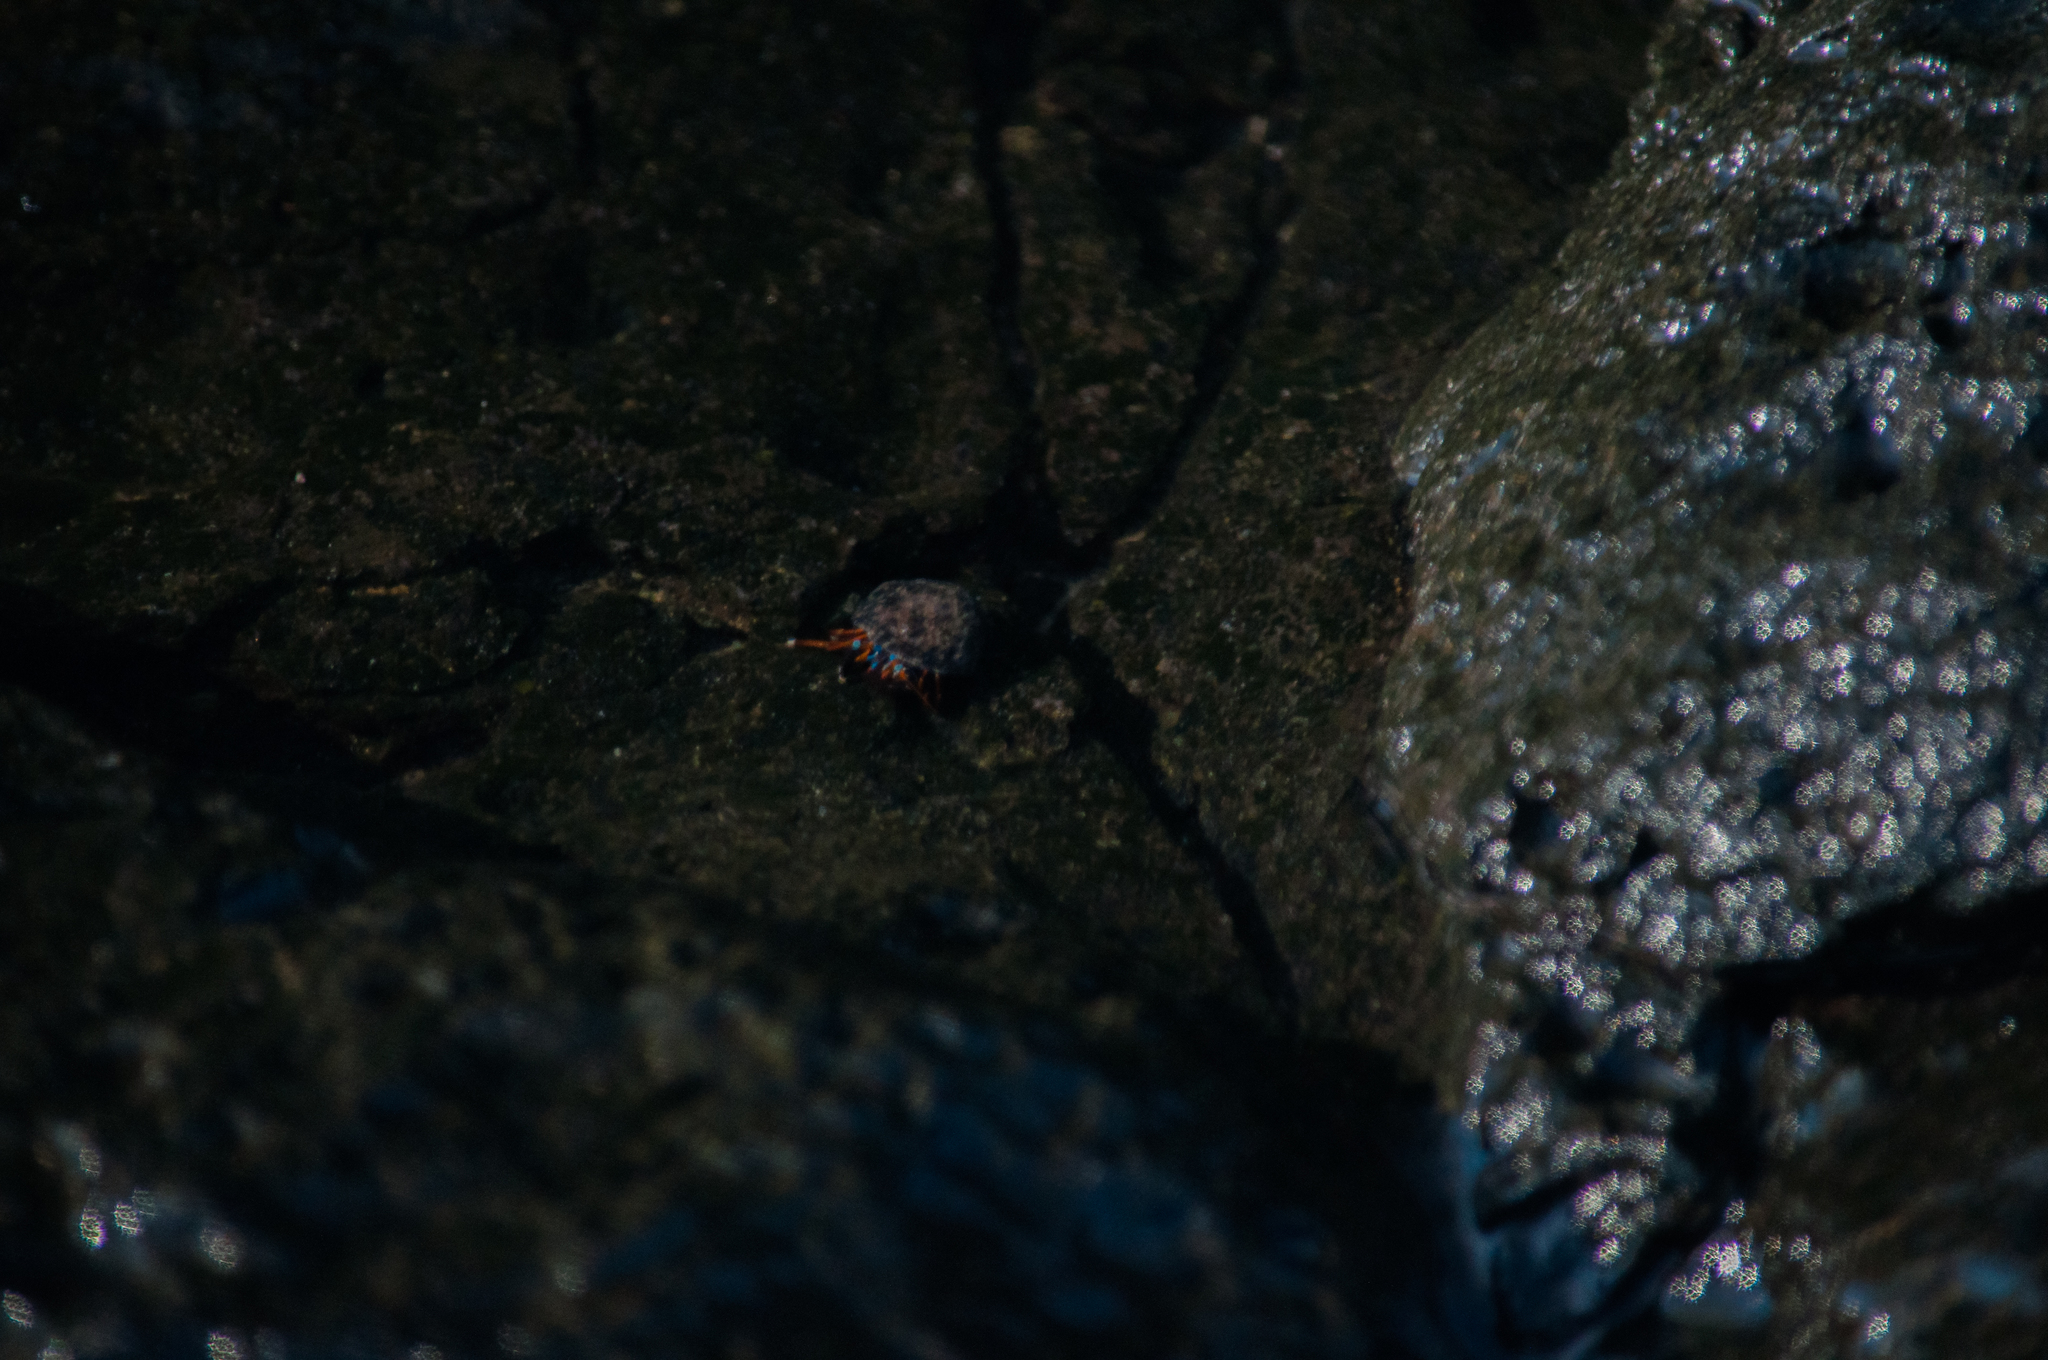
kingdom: Animalia
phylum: Arthropoda
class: Malacostraca
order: Decapoda
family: Diogenidae
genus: Calcinus
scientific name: Calcinus laevimanus
